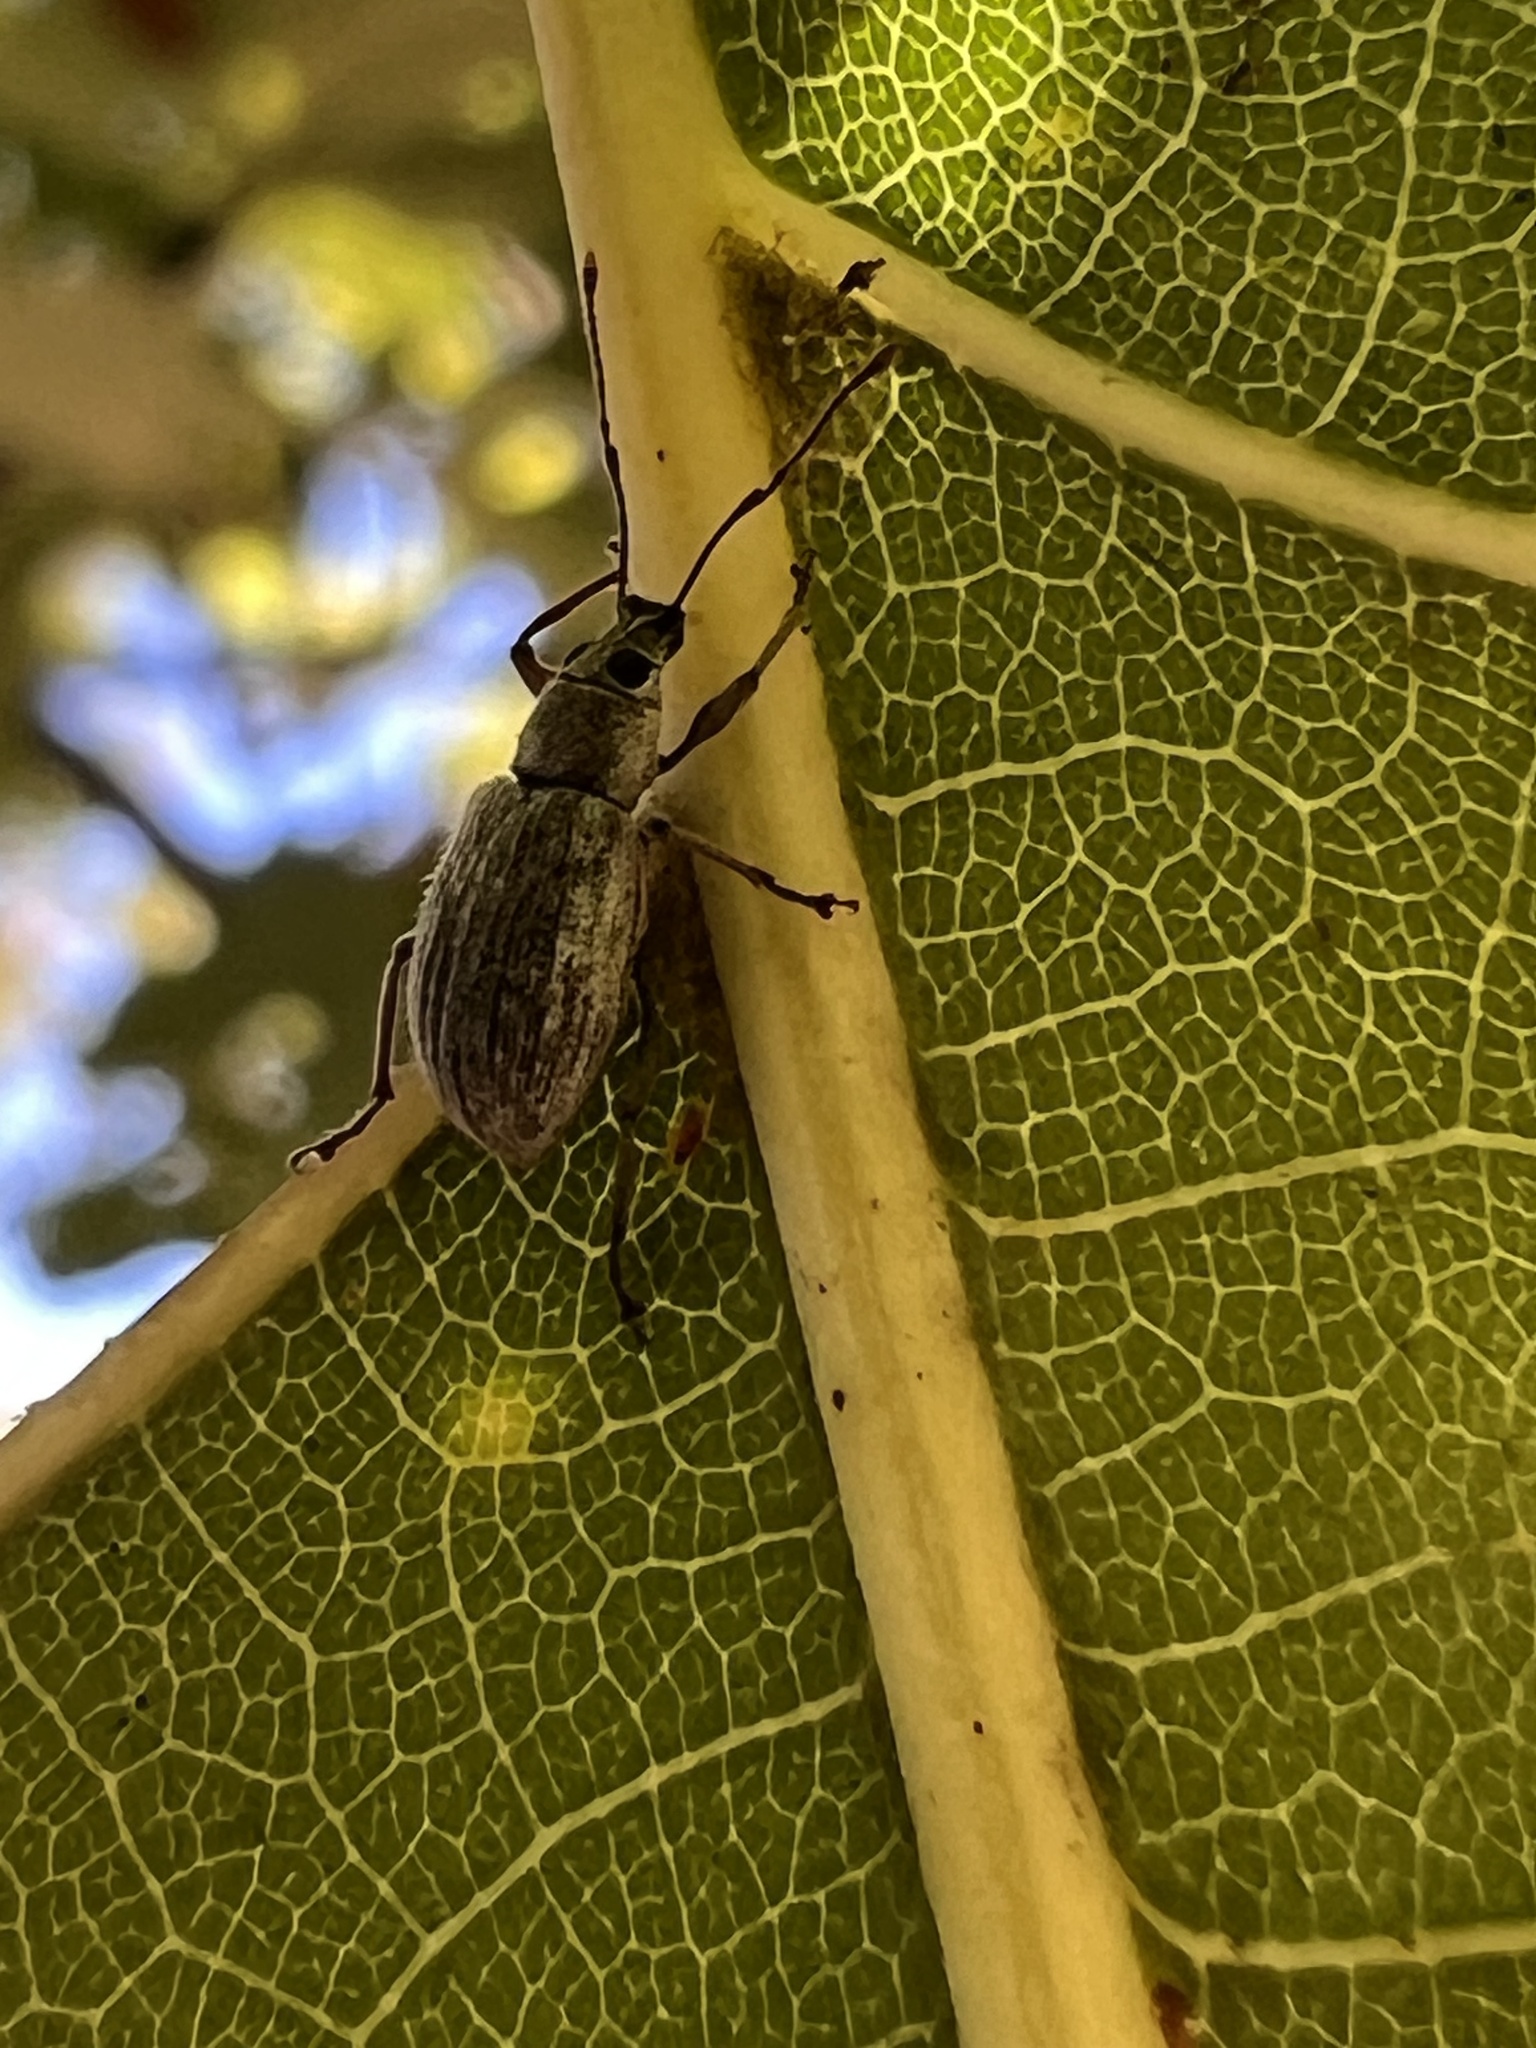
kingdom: Animalia
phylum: Arthropoda
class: Insecta
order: Coleoptera
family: Curculionidae
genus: Cyrtepistomus
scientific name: Cyrtepistomus castaneus
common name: Weevil
